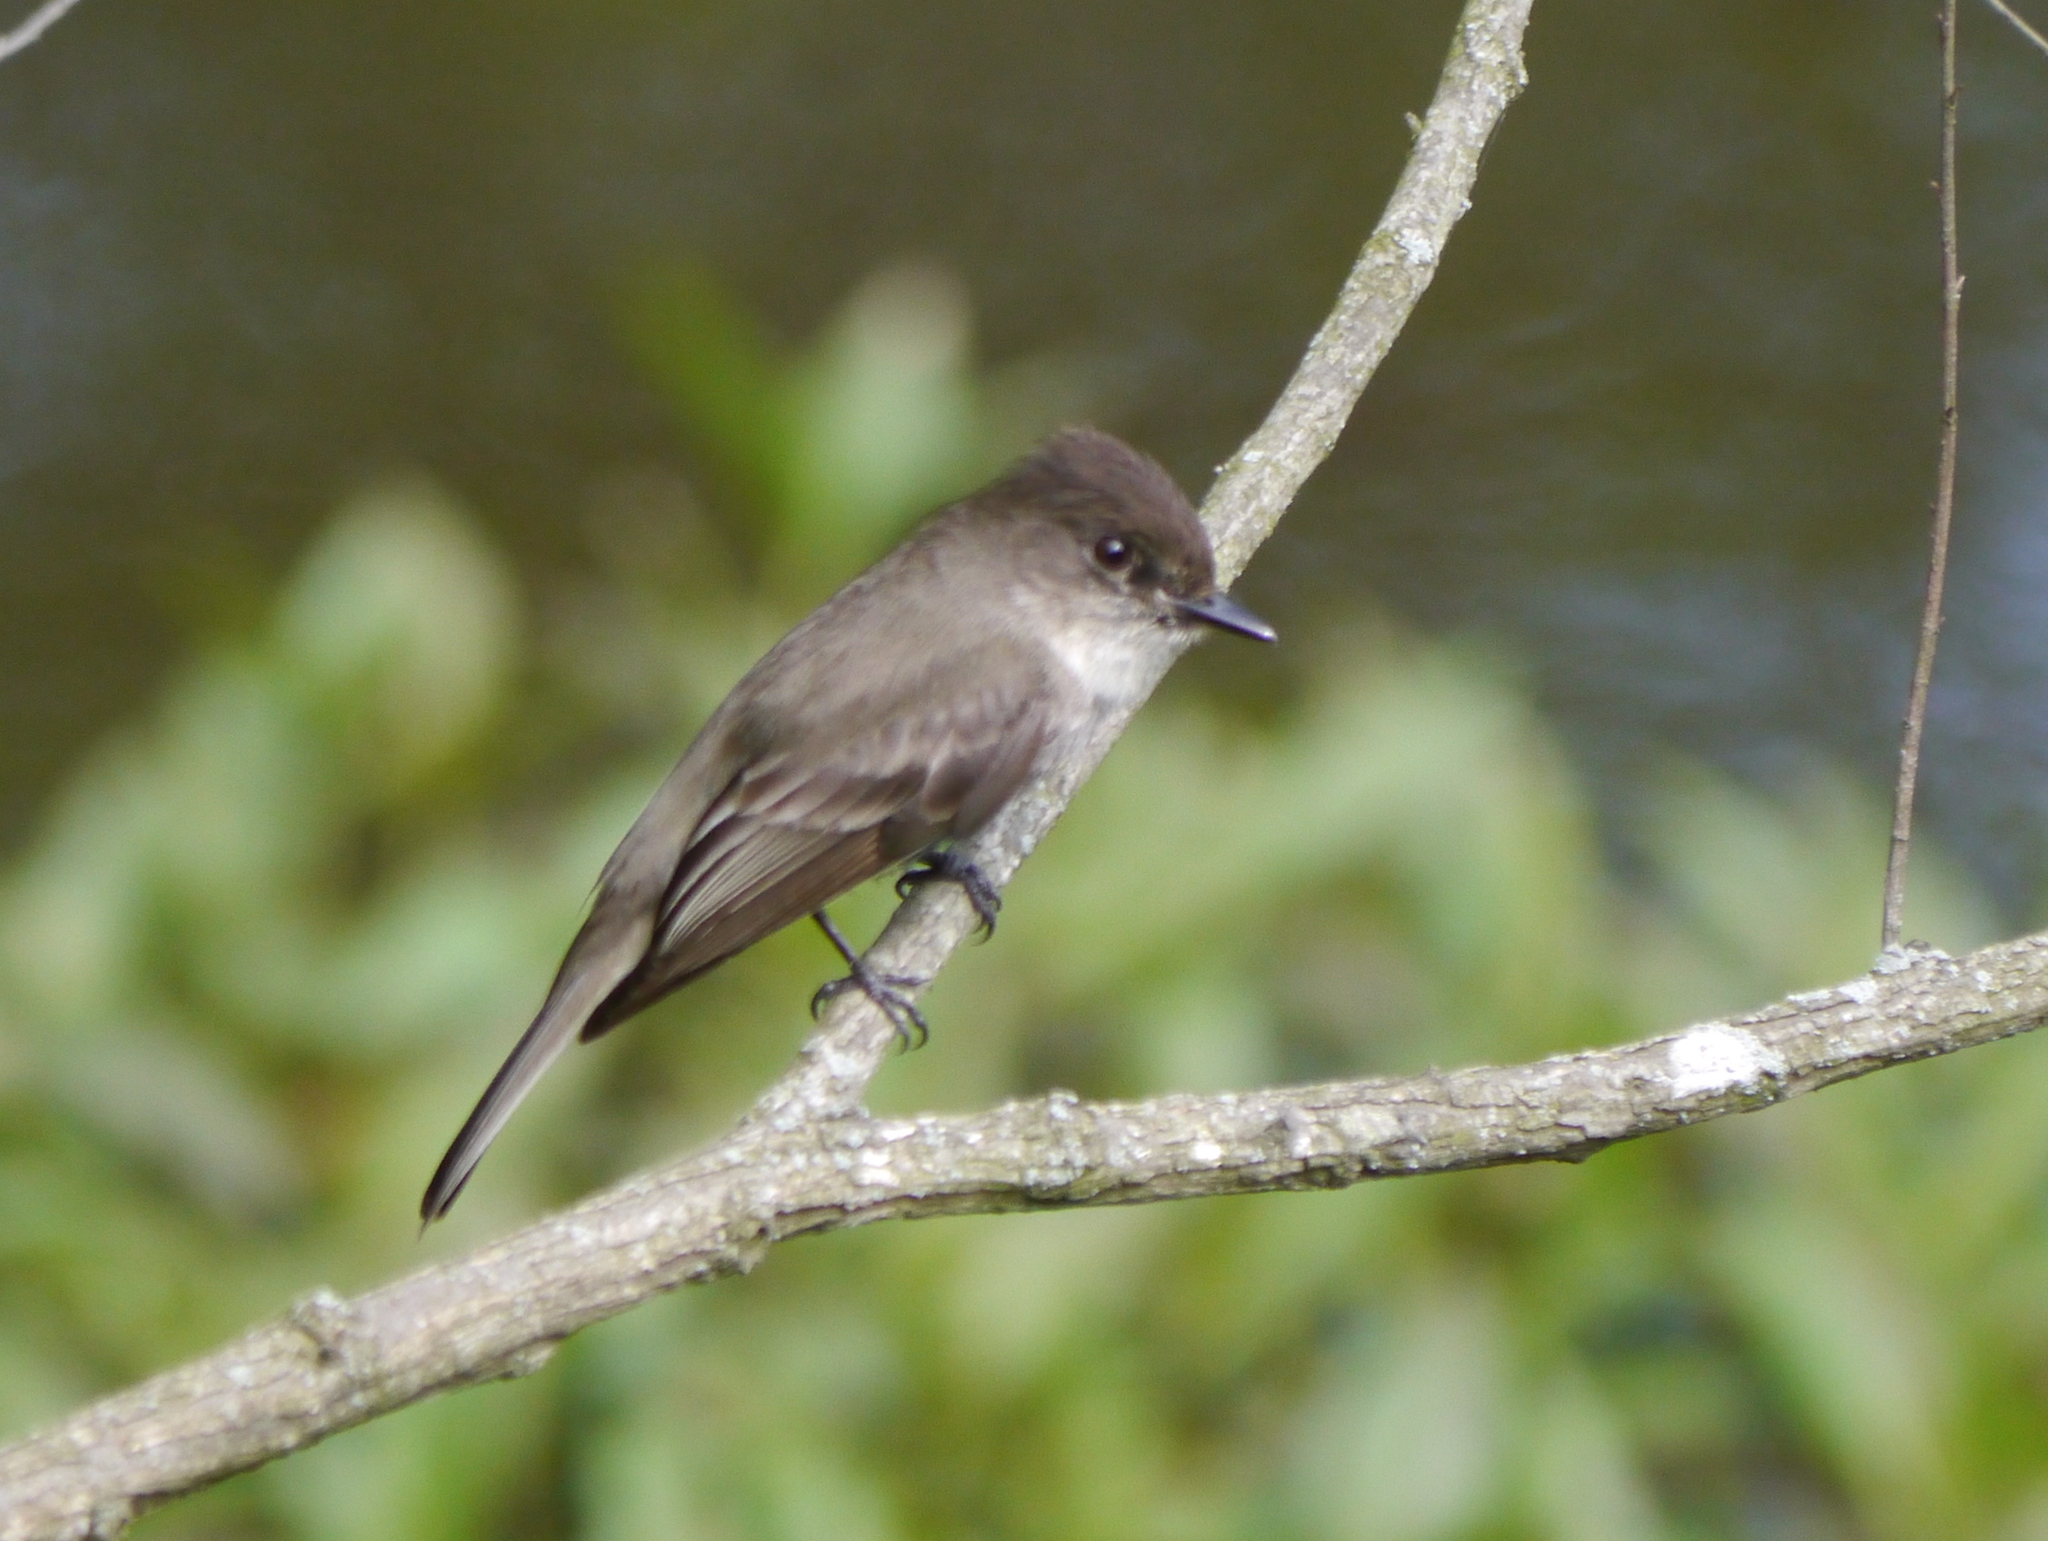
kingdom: Animalia
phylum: Chordata
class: Aves
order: Passeriformes
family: Tyrannidae
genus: Sayornis
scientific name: Sayornis phoebe
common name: Eastern phoebe
